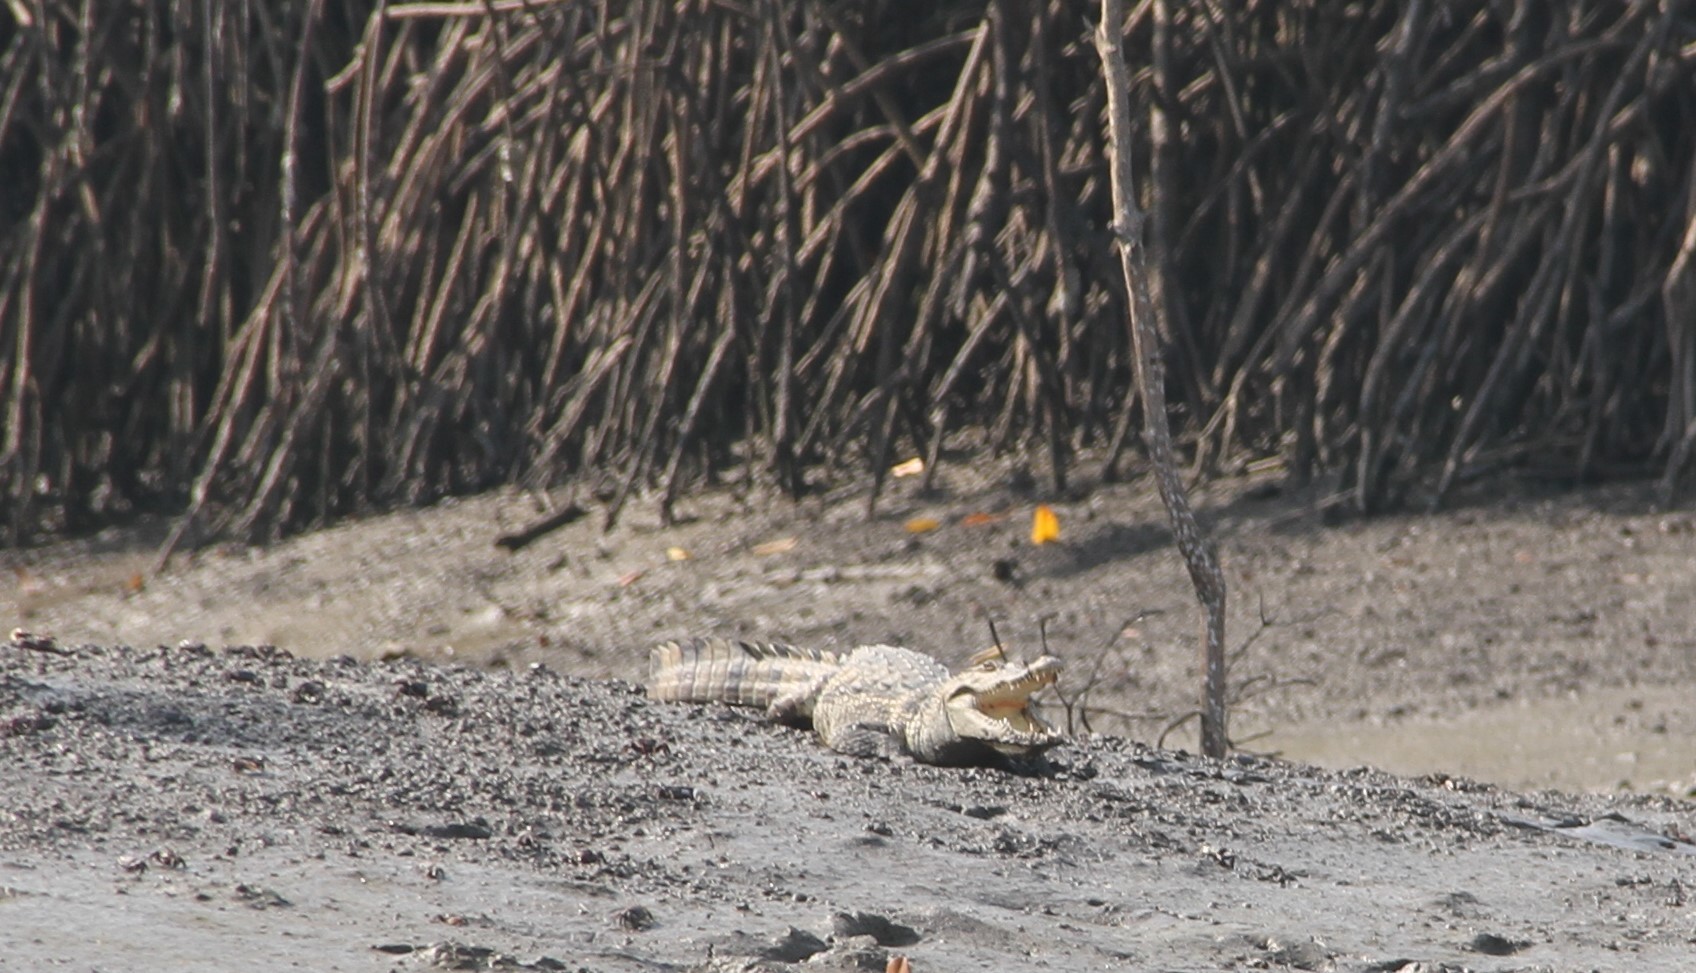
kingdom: Animalia
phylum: Chordata
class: Crocodylia
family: Crocodylidae
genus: Crocodylus
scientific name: Crocodylus suchus
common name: West african crocodile
